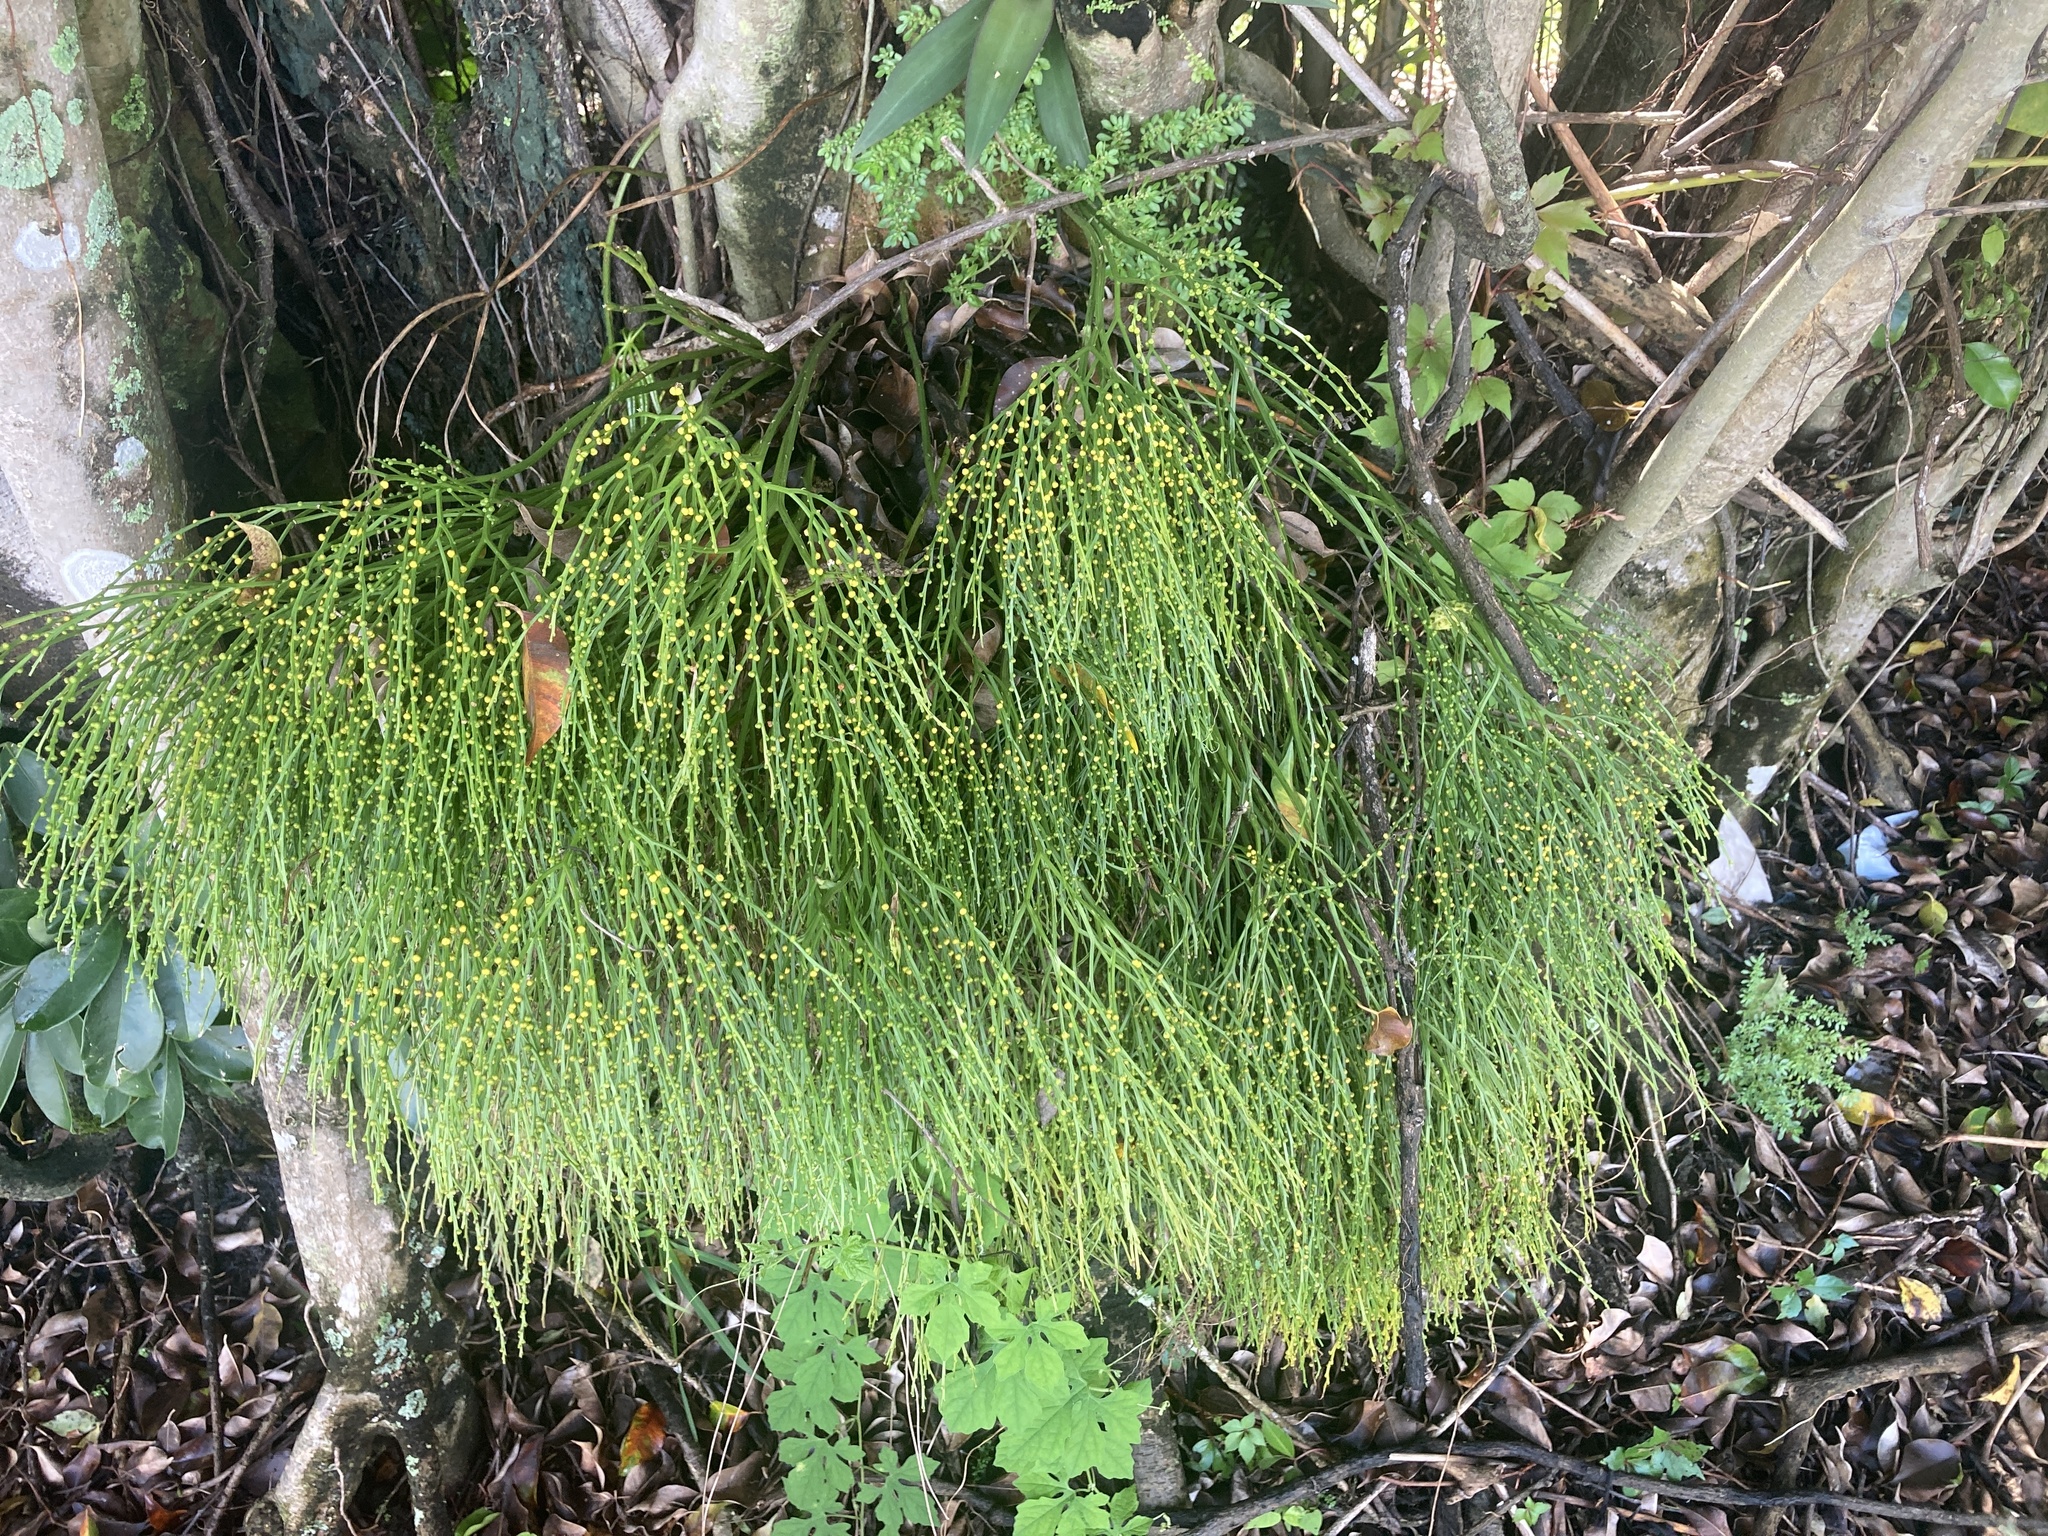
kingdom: Plantae
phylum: Tracheophyta
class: Polypodiopsida
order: Psilotales
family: Psilotaceae
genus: Psilotum
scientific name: Psilotum nudum
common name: Skeleton fork fern
